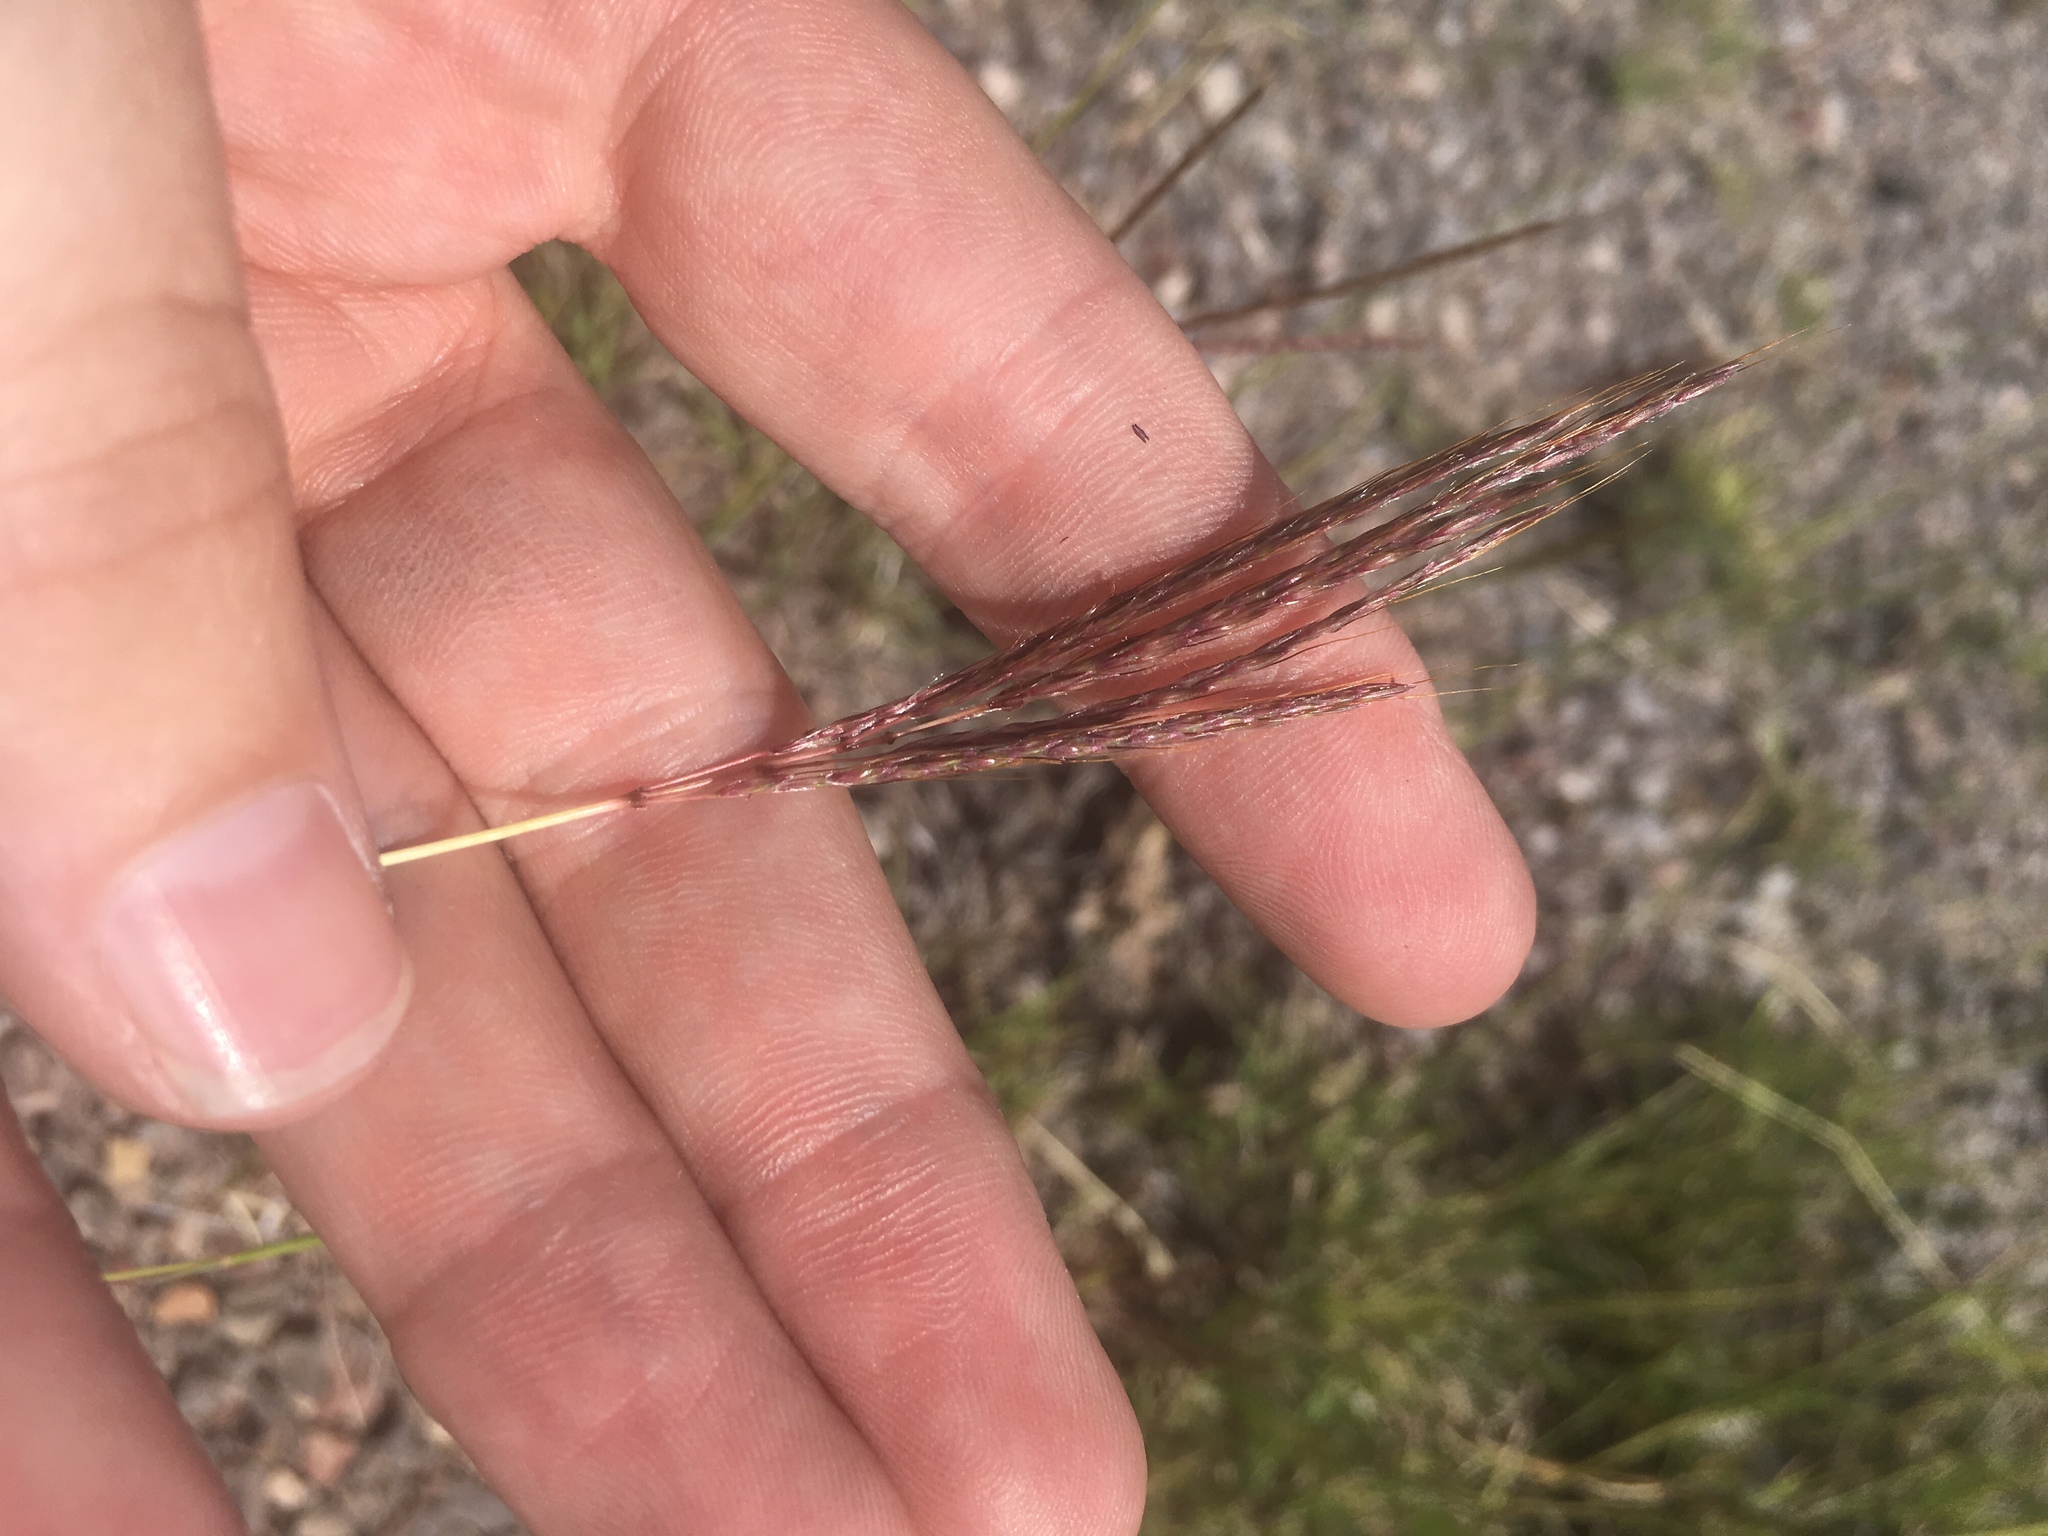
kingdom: Plantae
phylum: Tracheophyta
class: Liliopsida
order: Poales
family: Poaceae
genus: Bothriochloa
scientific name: Bothriochloa ischaemum
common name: Yellow bluestem
